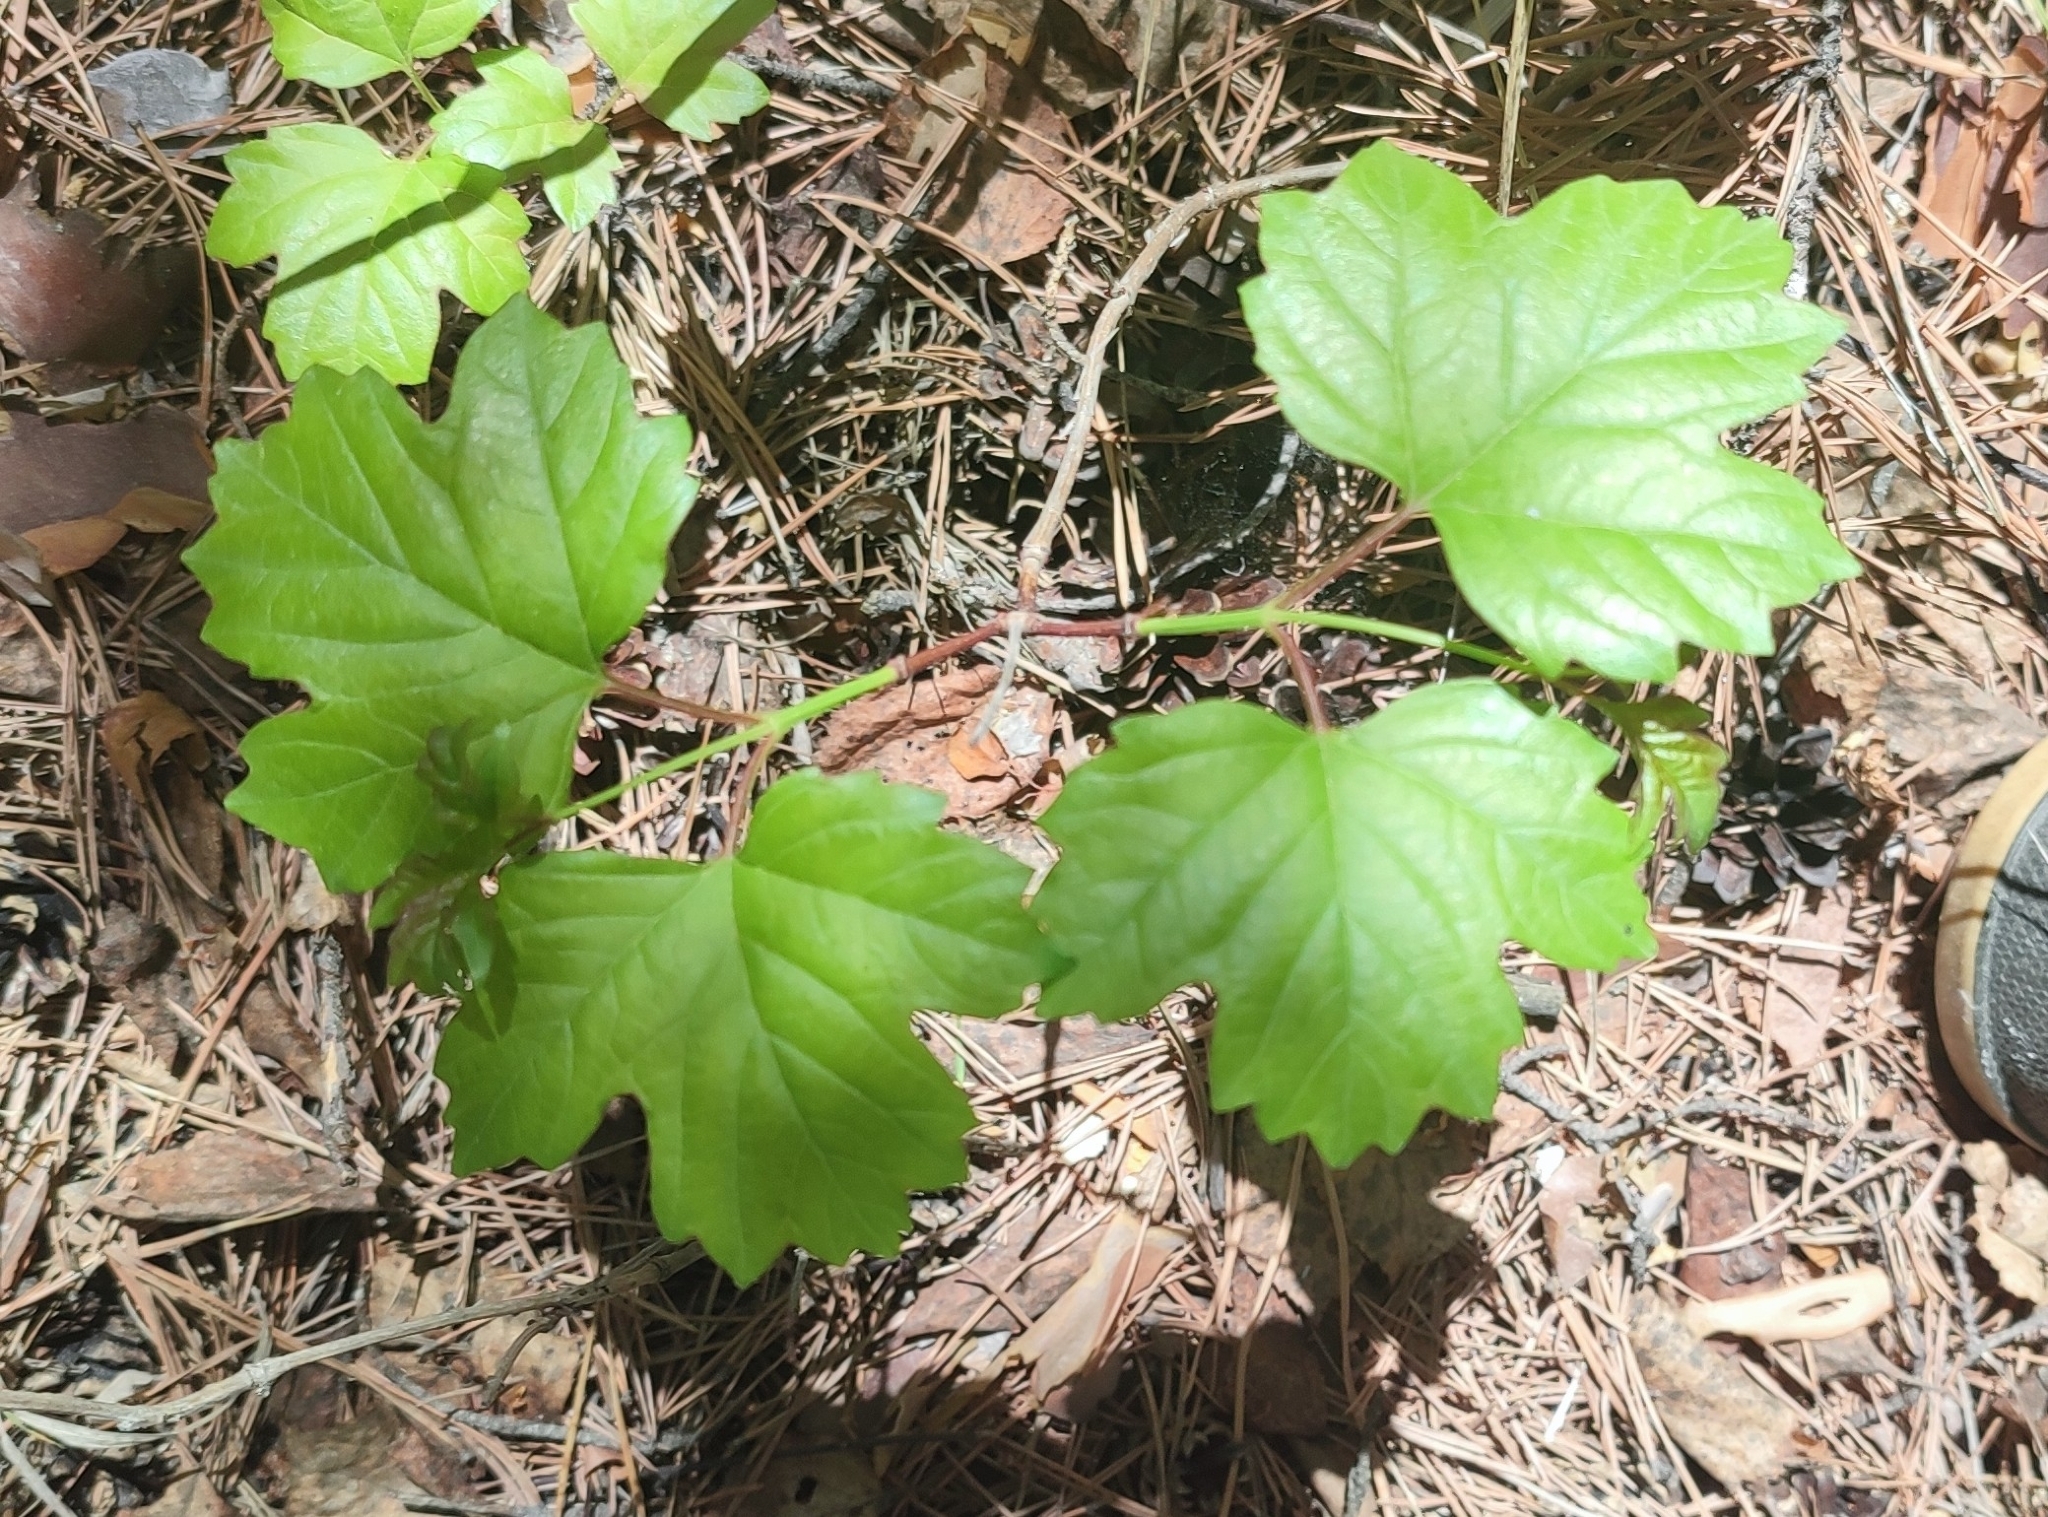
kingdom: Plantae
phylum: Tracheophyta
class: Magnoliopsida
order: Dipsacales
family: Viburnaceae
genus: Viburnum
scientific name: Viburnum opulus
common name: Guelder-rose
